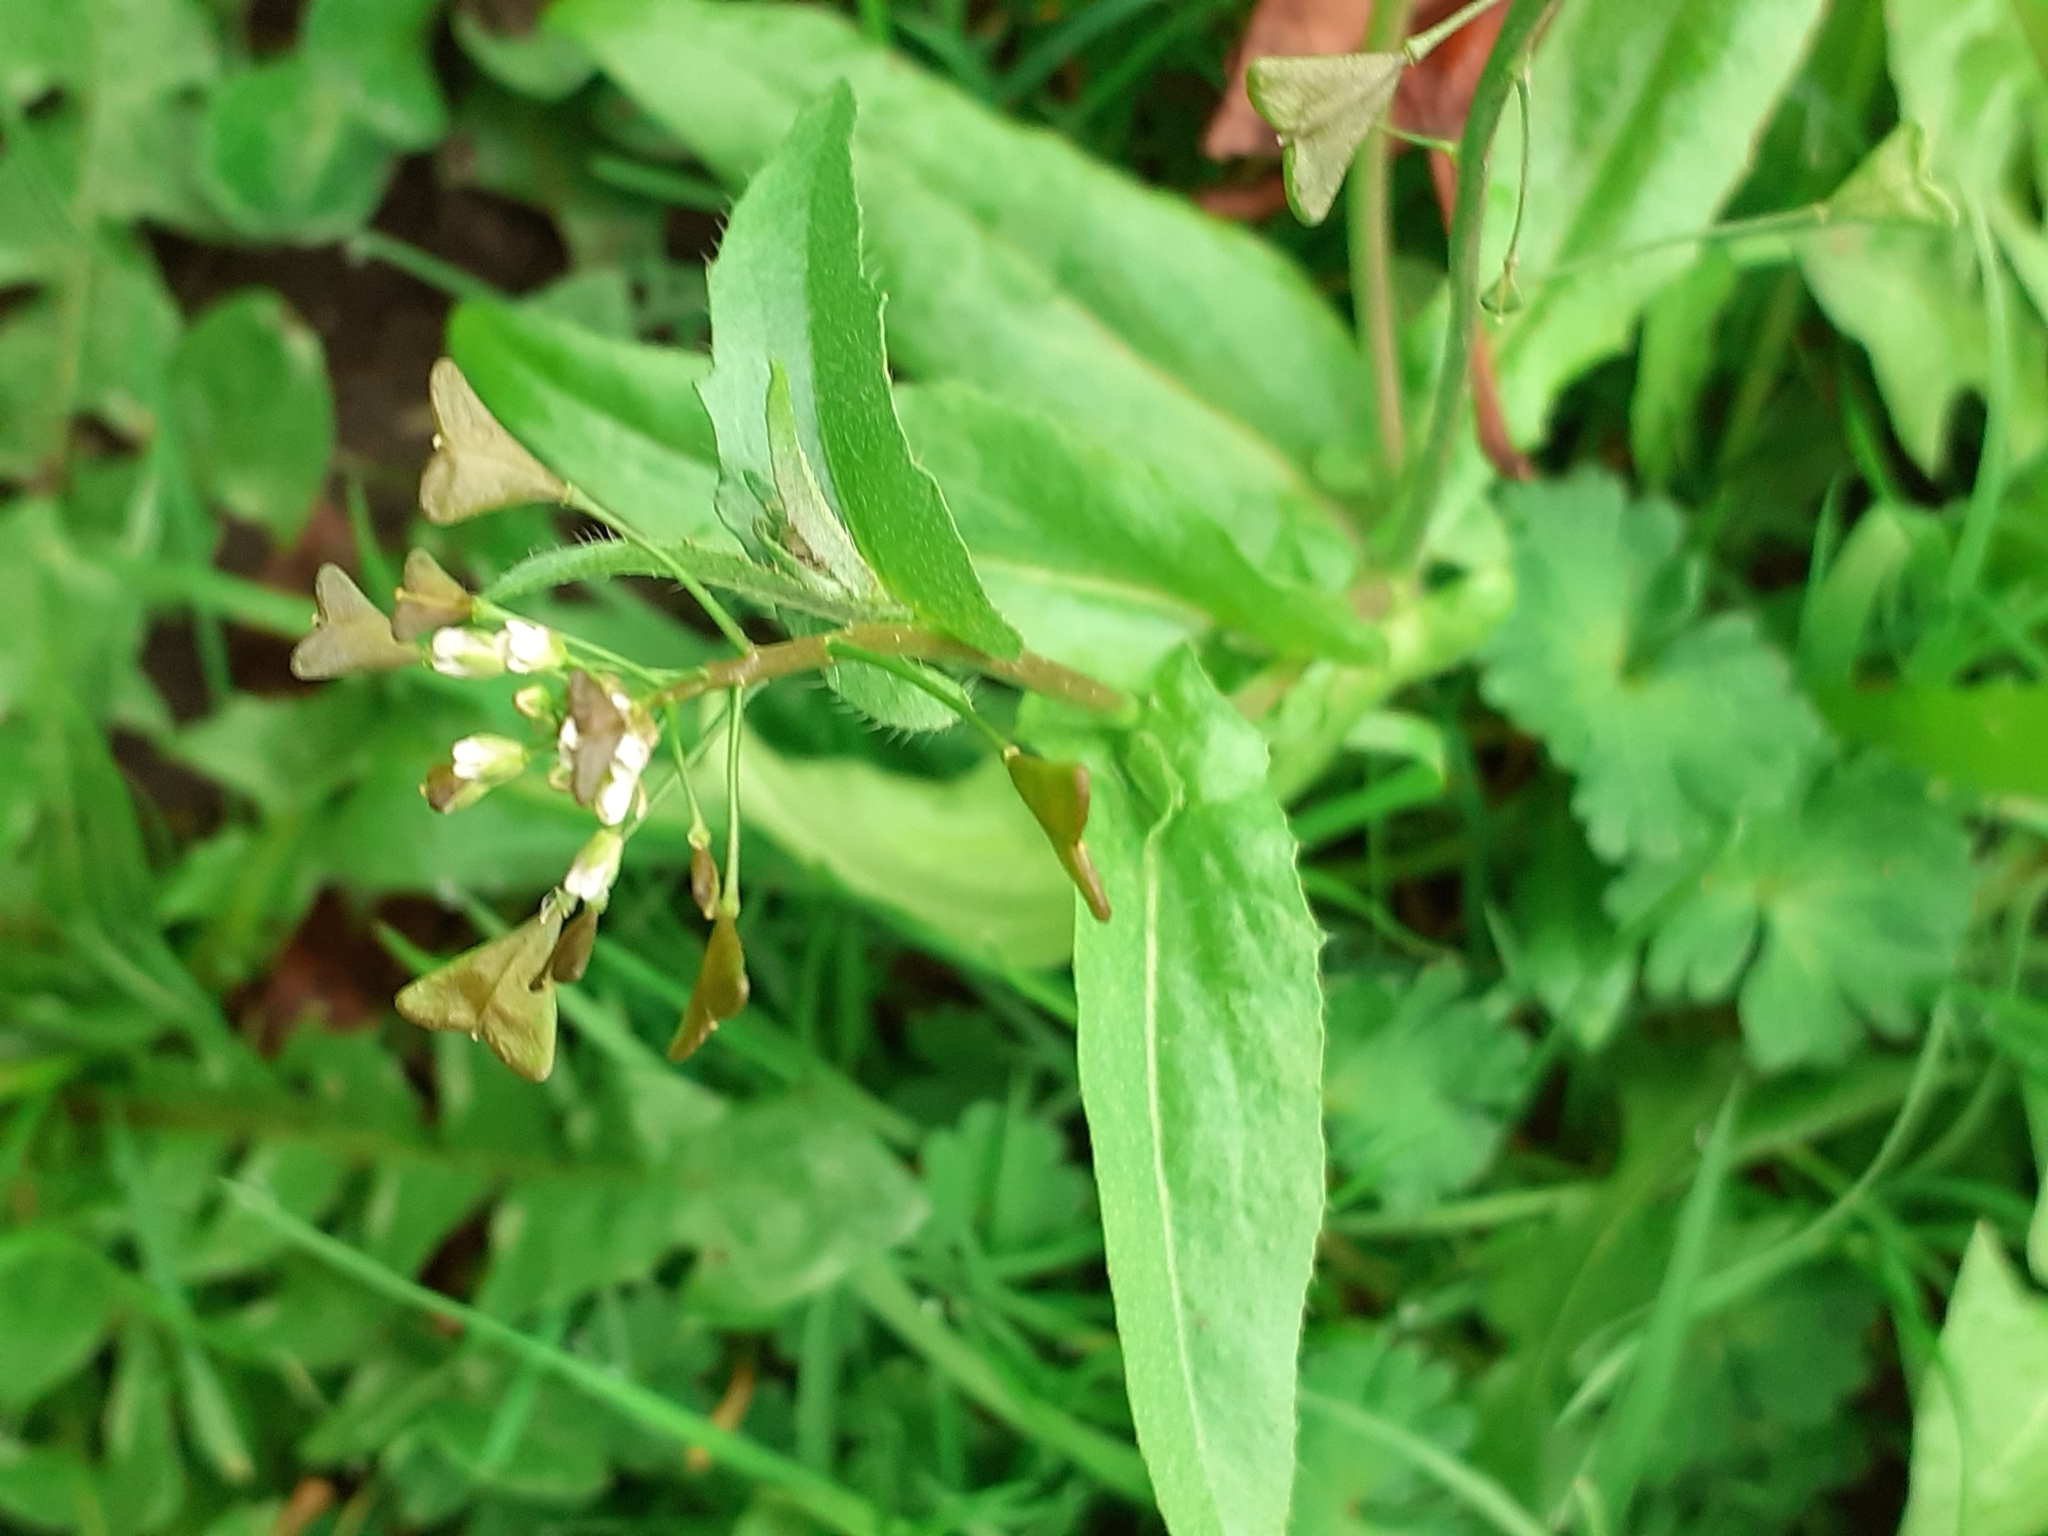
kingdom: Plantae
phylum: Tracheophyta
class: Magnoliopsida
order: Brassicales
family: Brassicaceae
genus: Capsella
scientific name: Capsella bursa-pastoris
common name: Shepherd's purse
